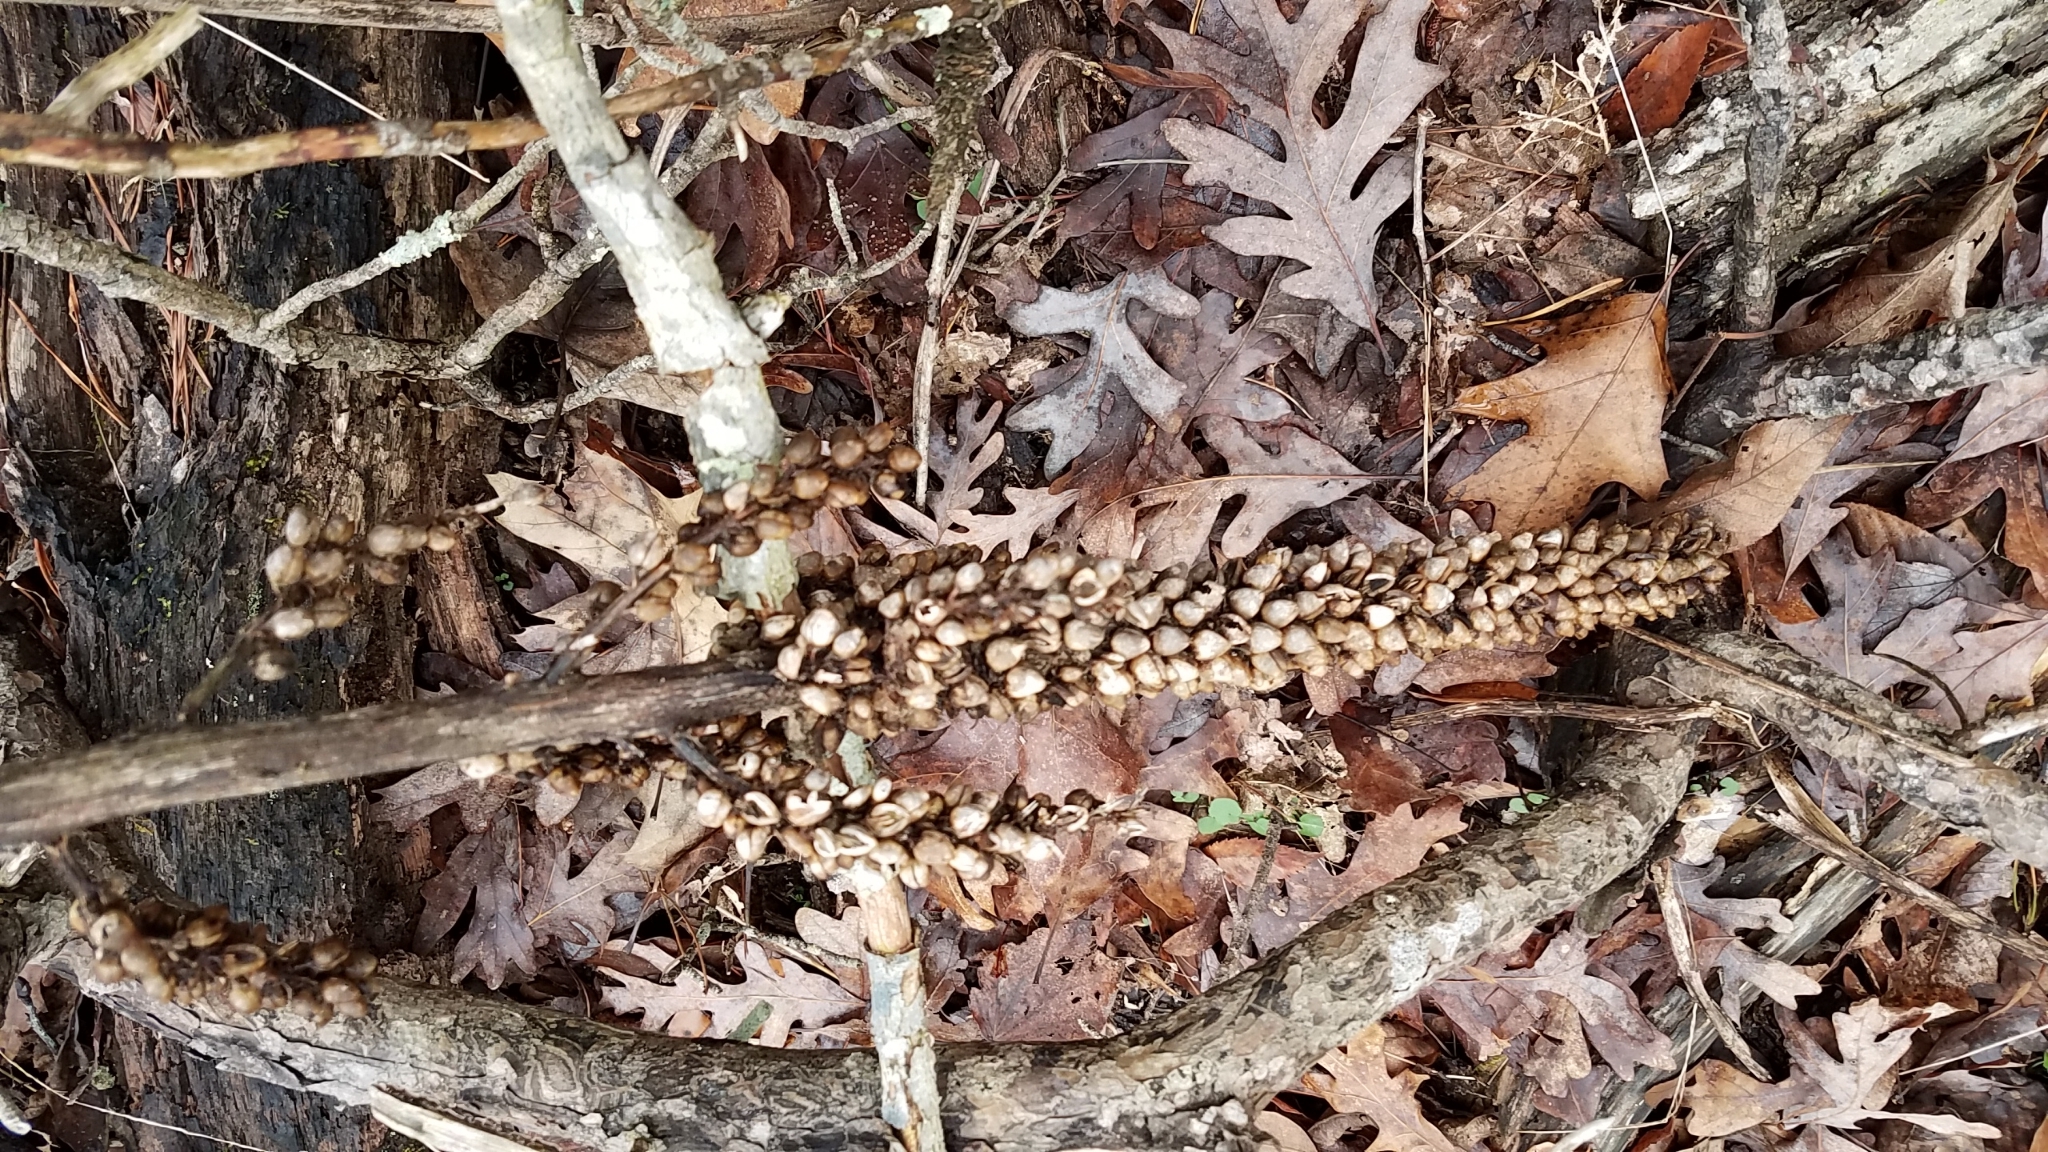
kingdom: Plantae
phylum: Tracheophyta
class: Magnoliopsida
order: Lamiales
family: Orobanchaceae
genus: Conopholis
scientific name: Conopholis americana
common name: American cancer-root
